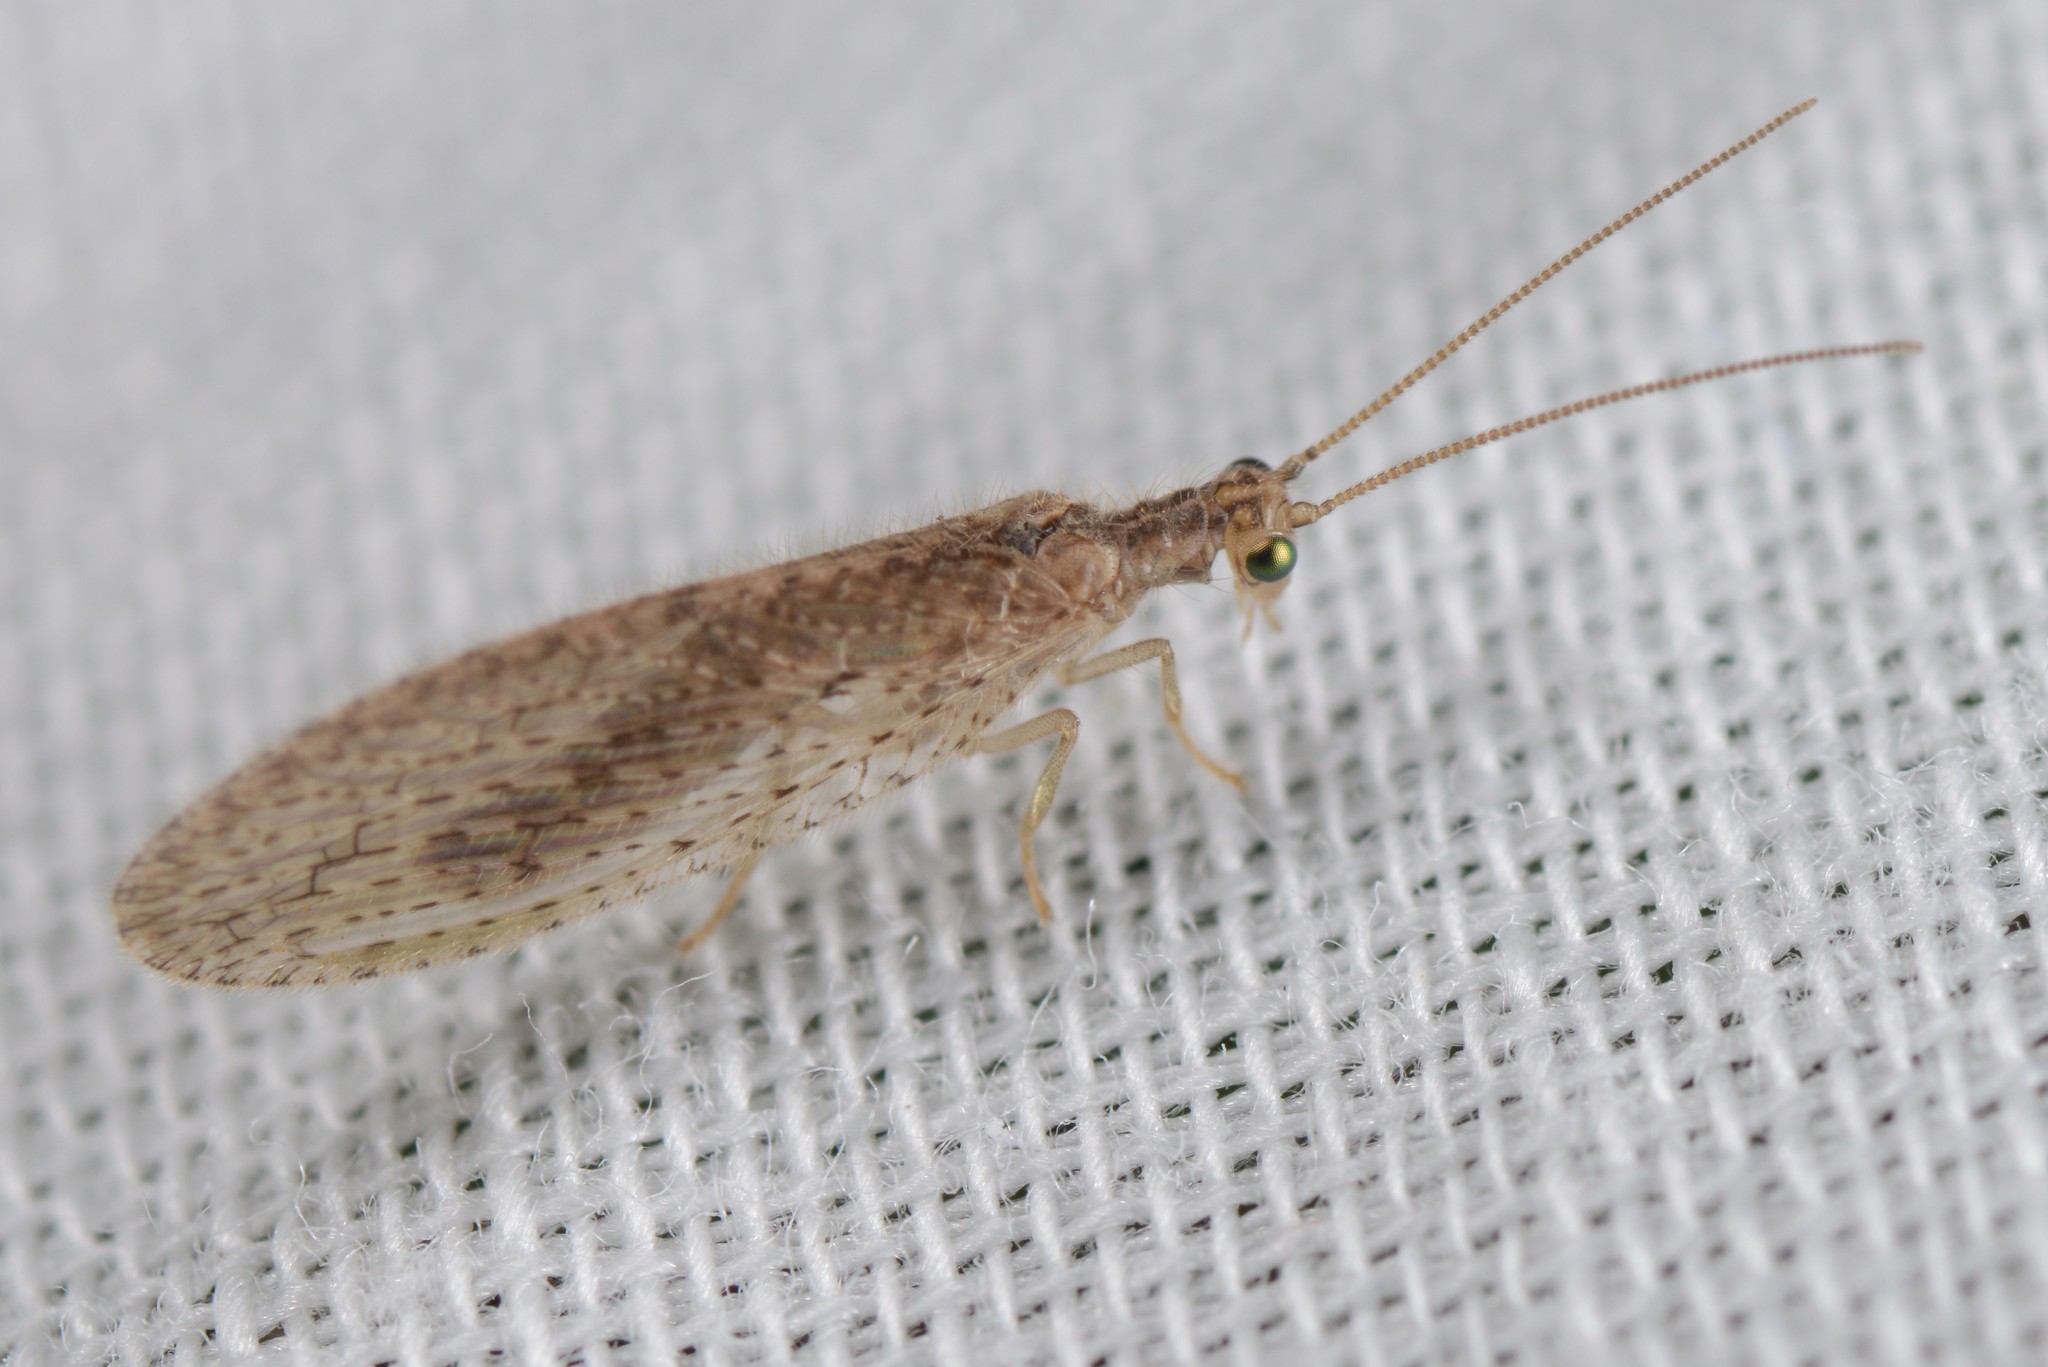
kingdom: Animalia
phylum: Arthropoda
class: Insecta
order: Neuroptera
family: Hemerobiidae
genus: Micromus
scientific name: Micromus tasmaniae
